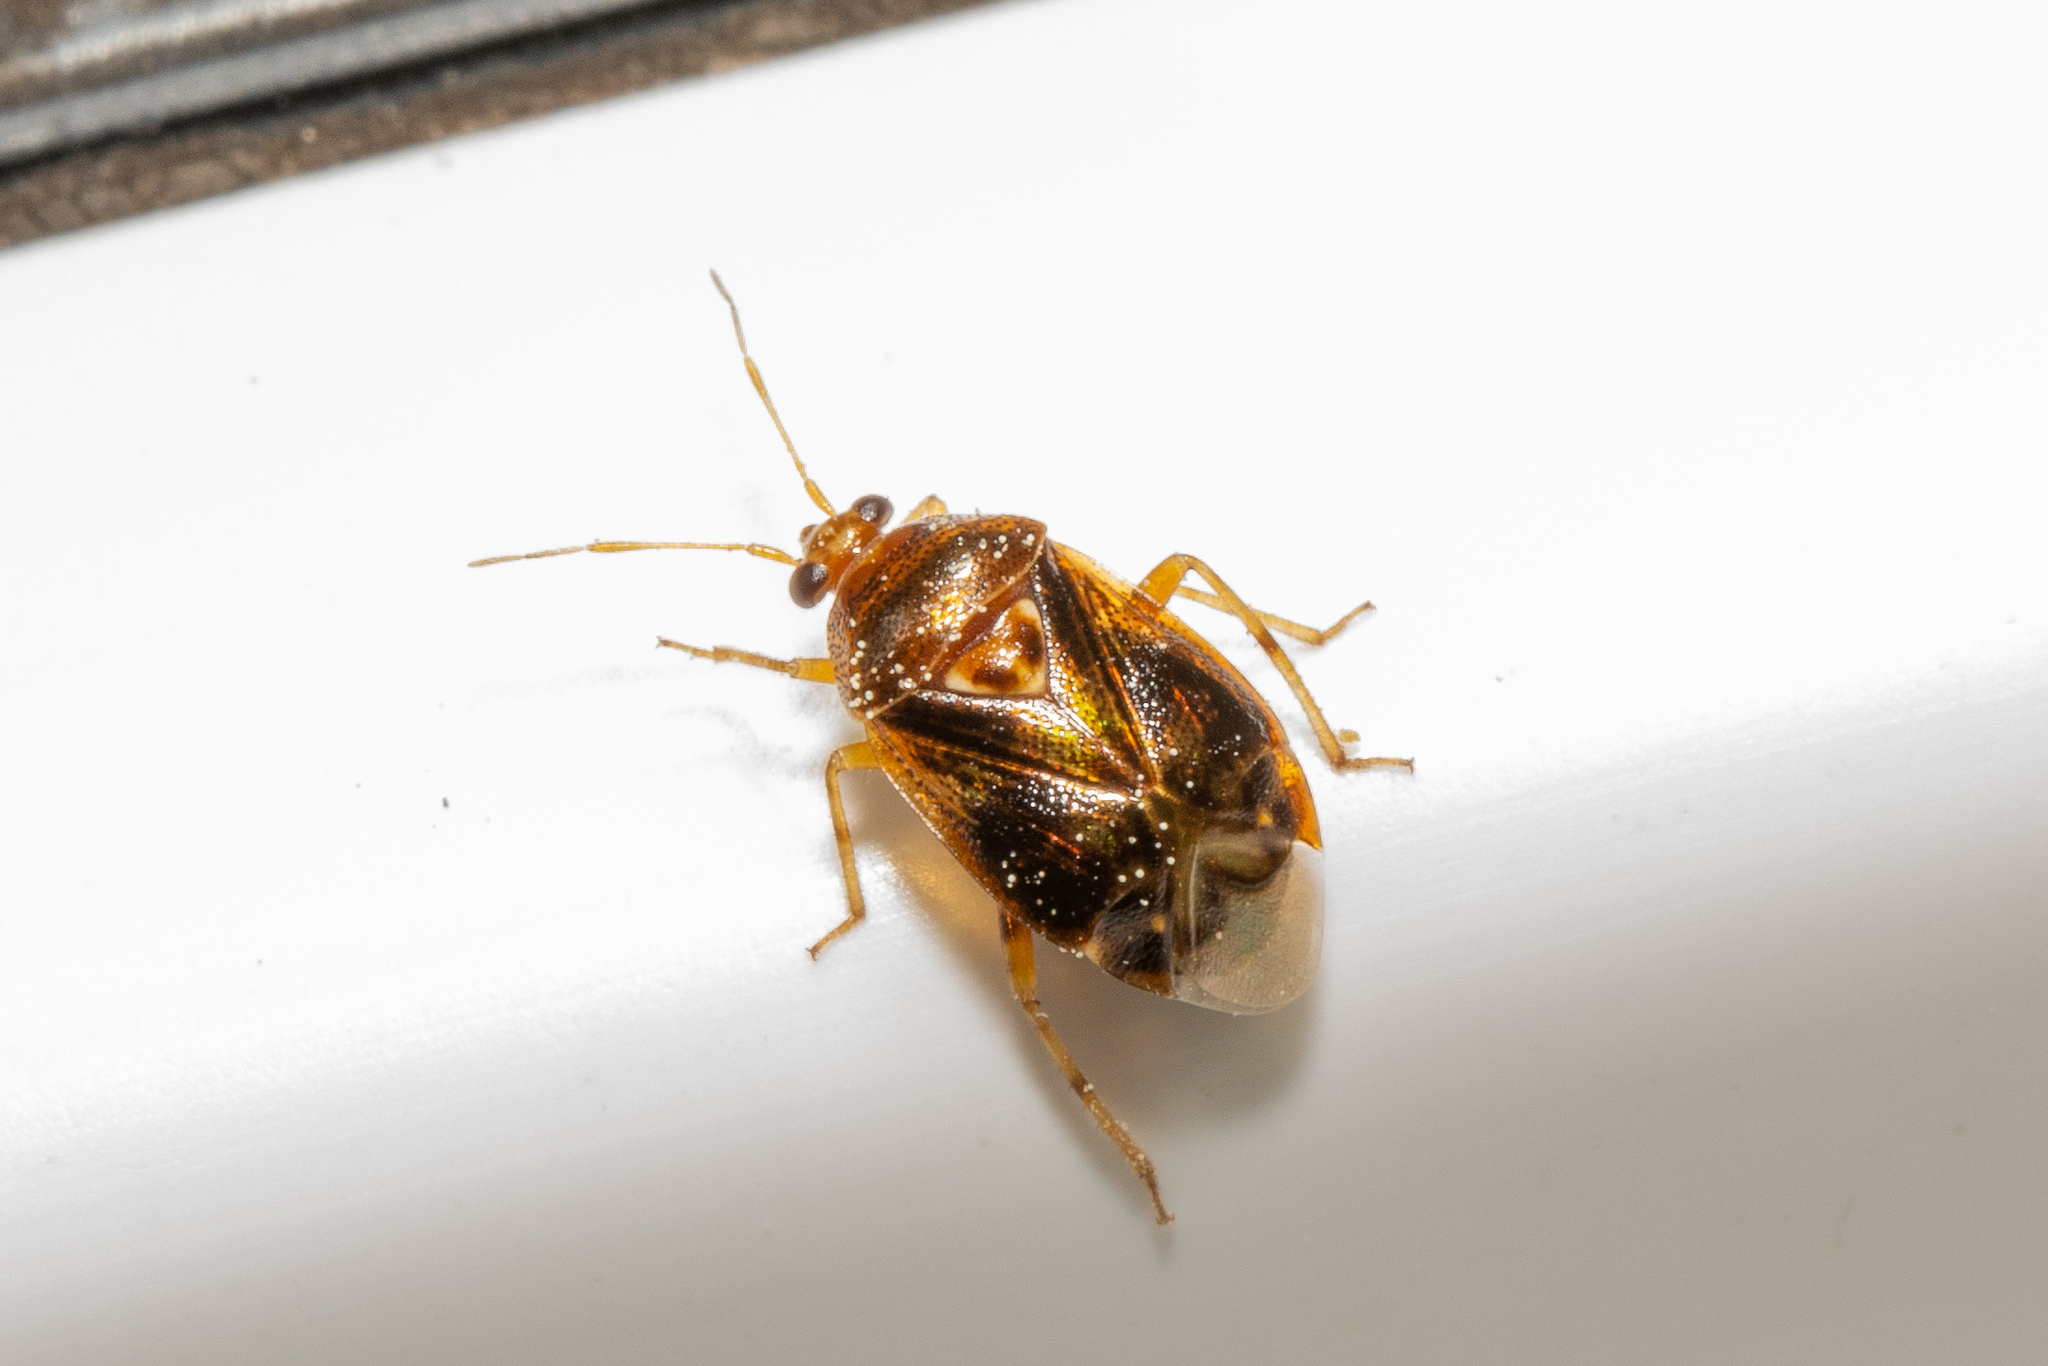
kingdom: Animalia
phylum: Arthropoda
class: Insecta
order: Hemiptera
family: Miridae
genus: Deraeocoris
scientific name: Deraeocoris lutescens
